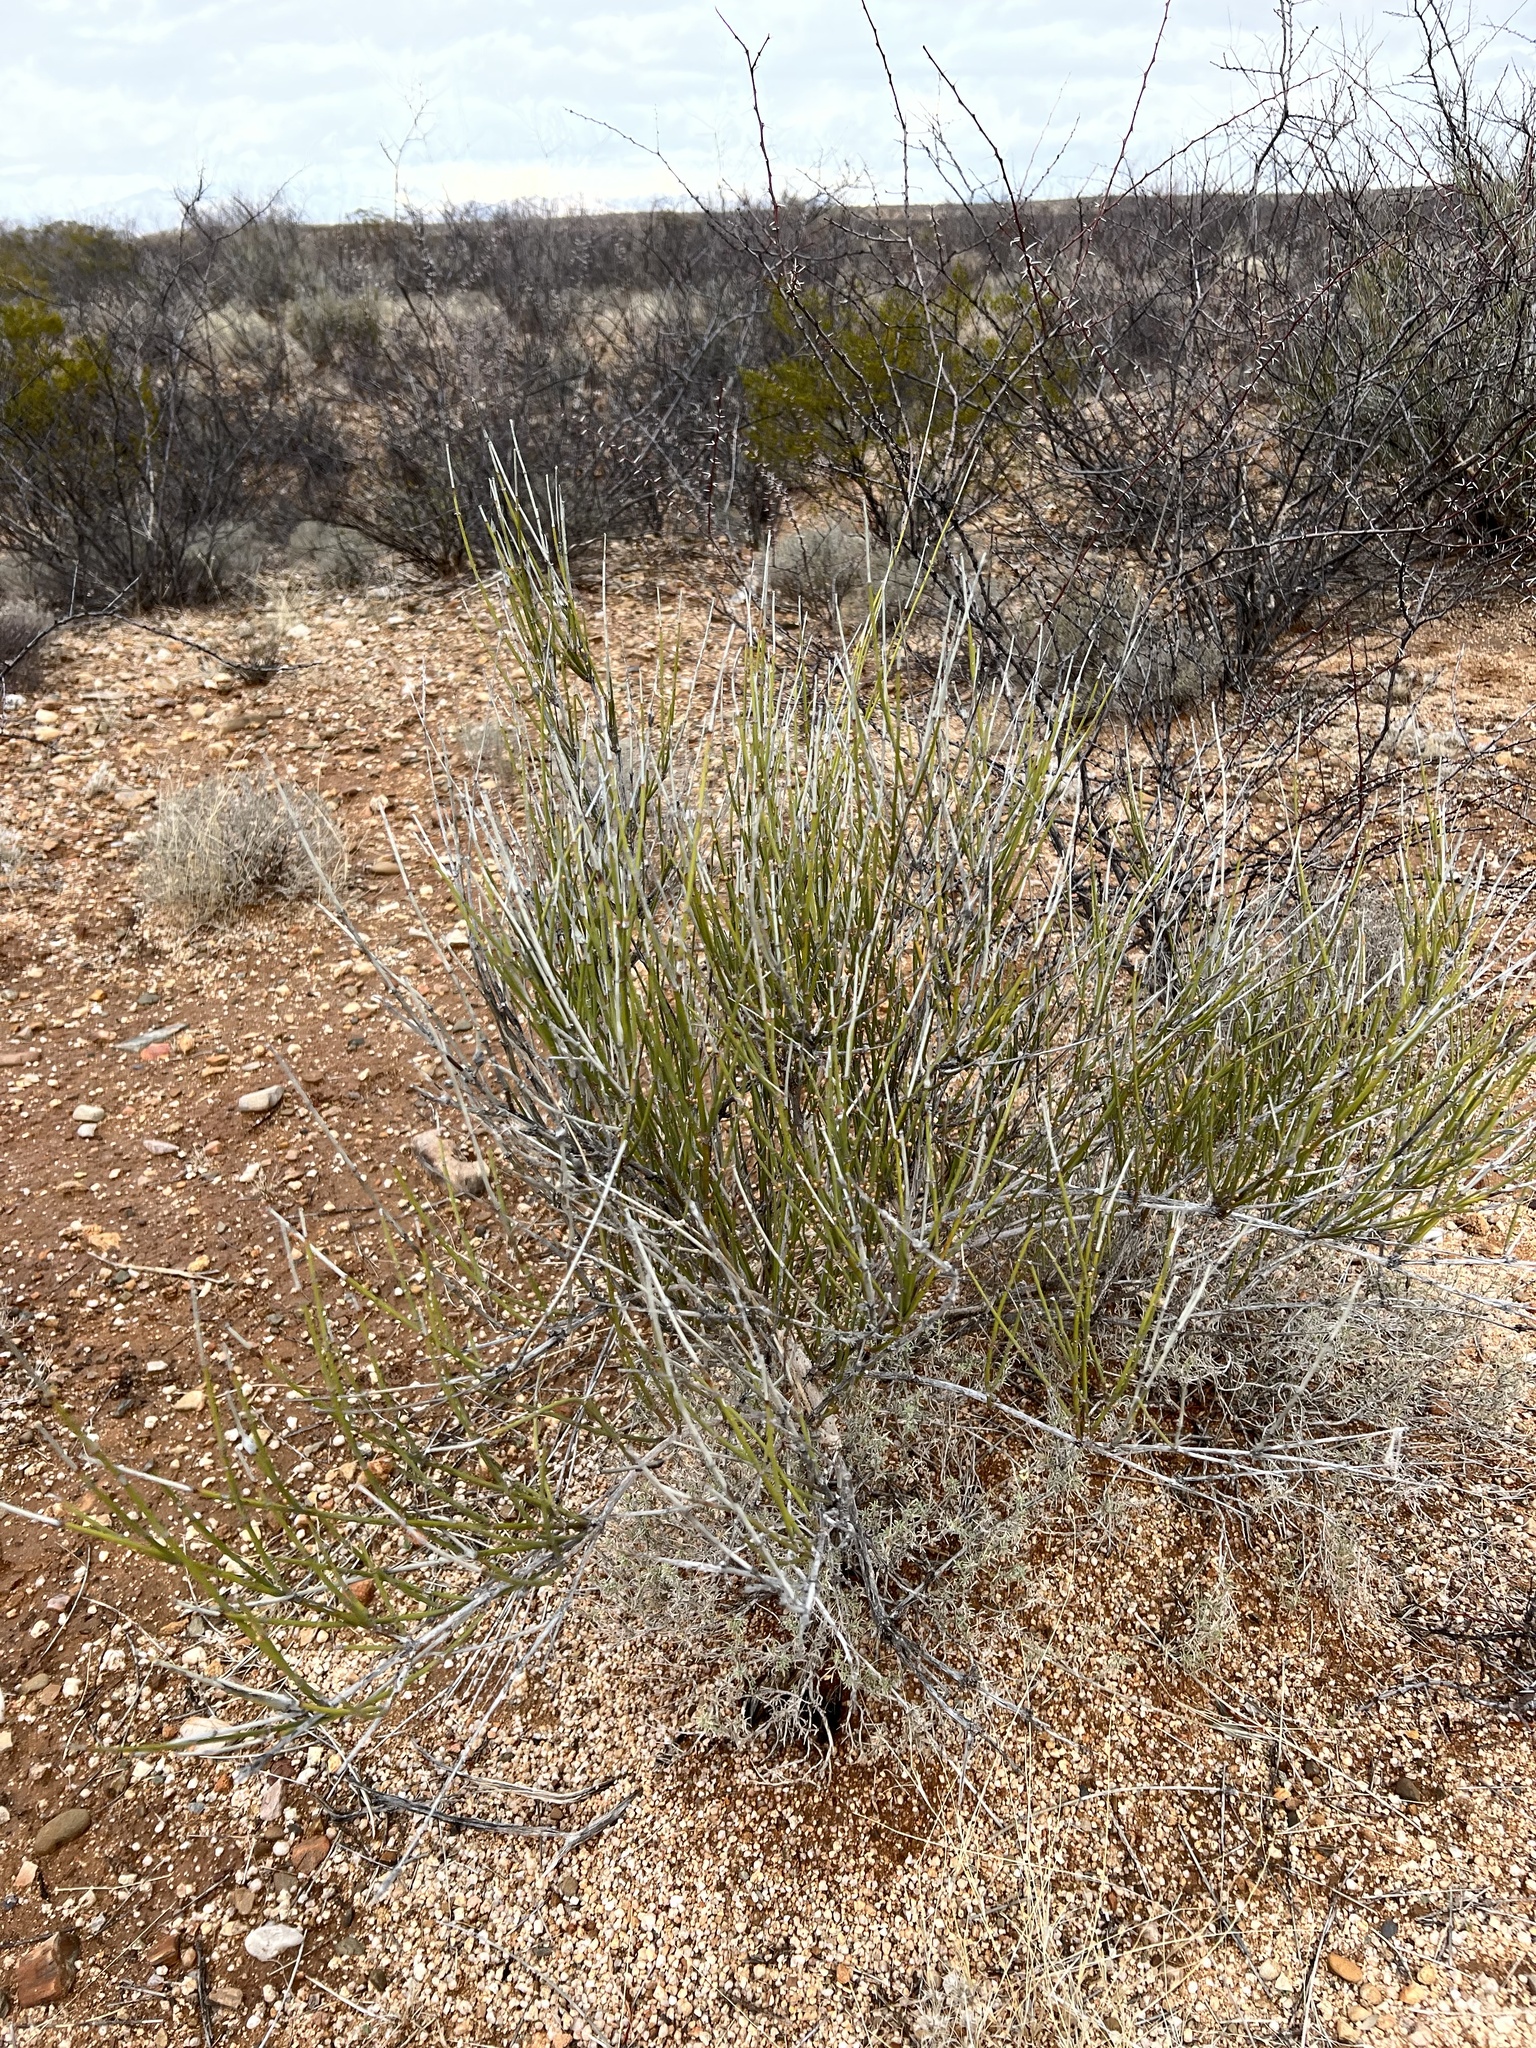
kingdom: Plantae
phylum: Tracheophyta
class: Gnetopsida
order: Ephedrales
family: Ephedraceae
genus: Ephedra
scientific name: Ephedra trifurca
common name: Mexican-tea
